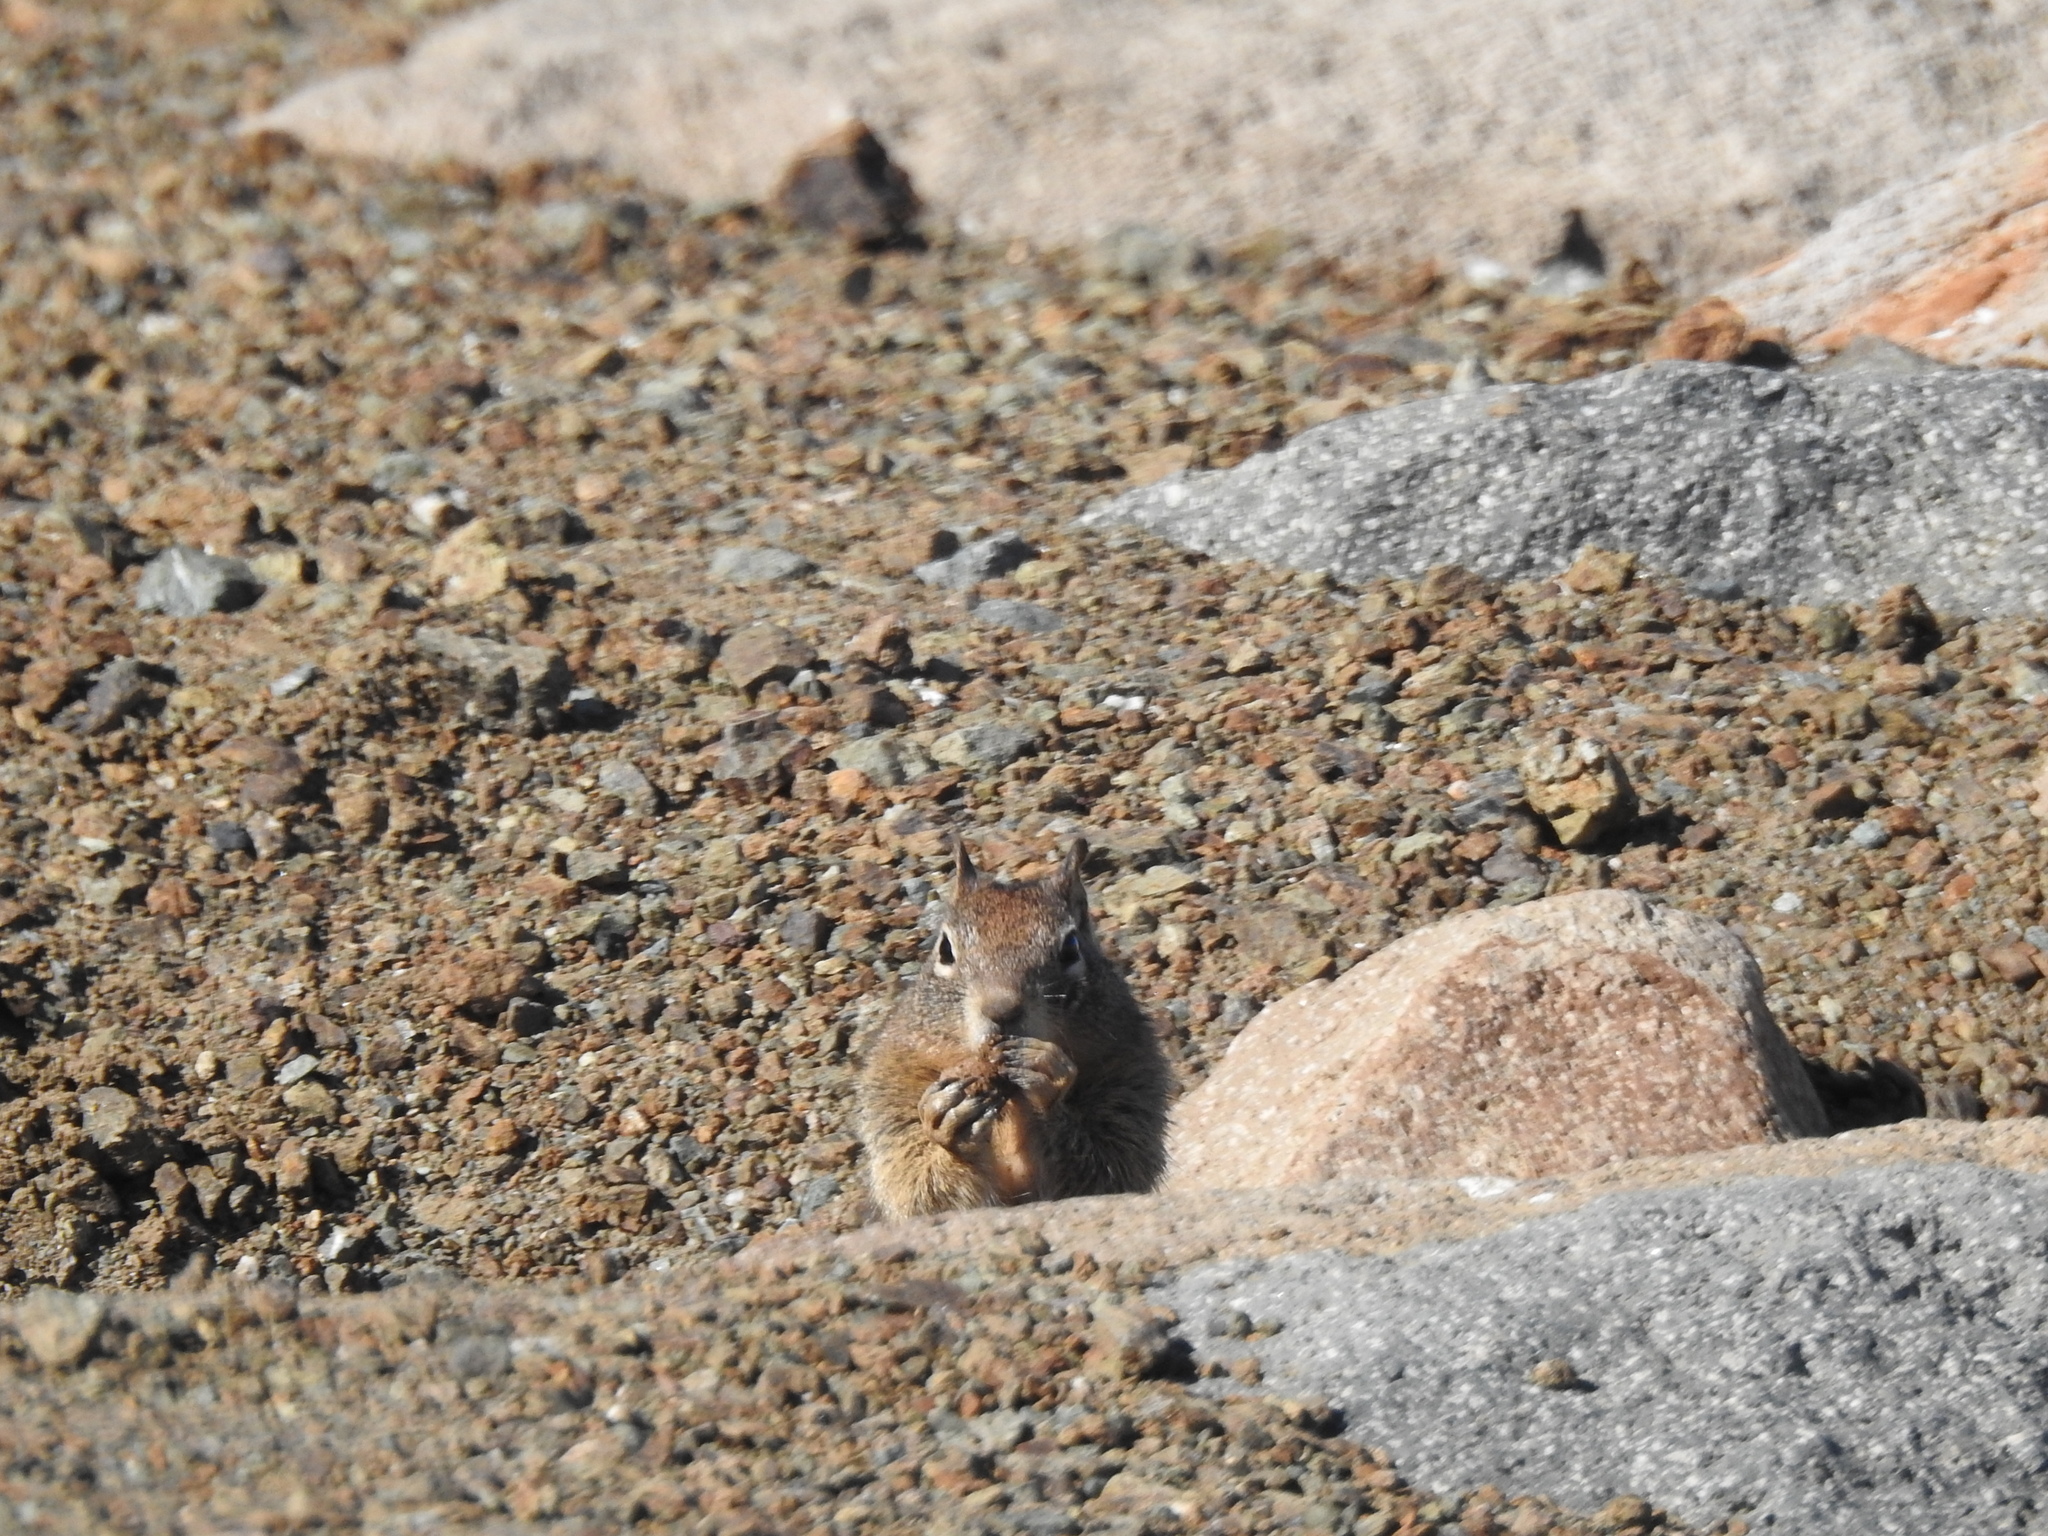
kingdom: Animalia
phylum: Chordata
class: Mammalia
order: Rodentia
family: Sciuridae
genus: Otospermophilus
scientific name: Otospermophilus beecheyi
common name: California ground squirrel
